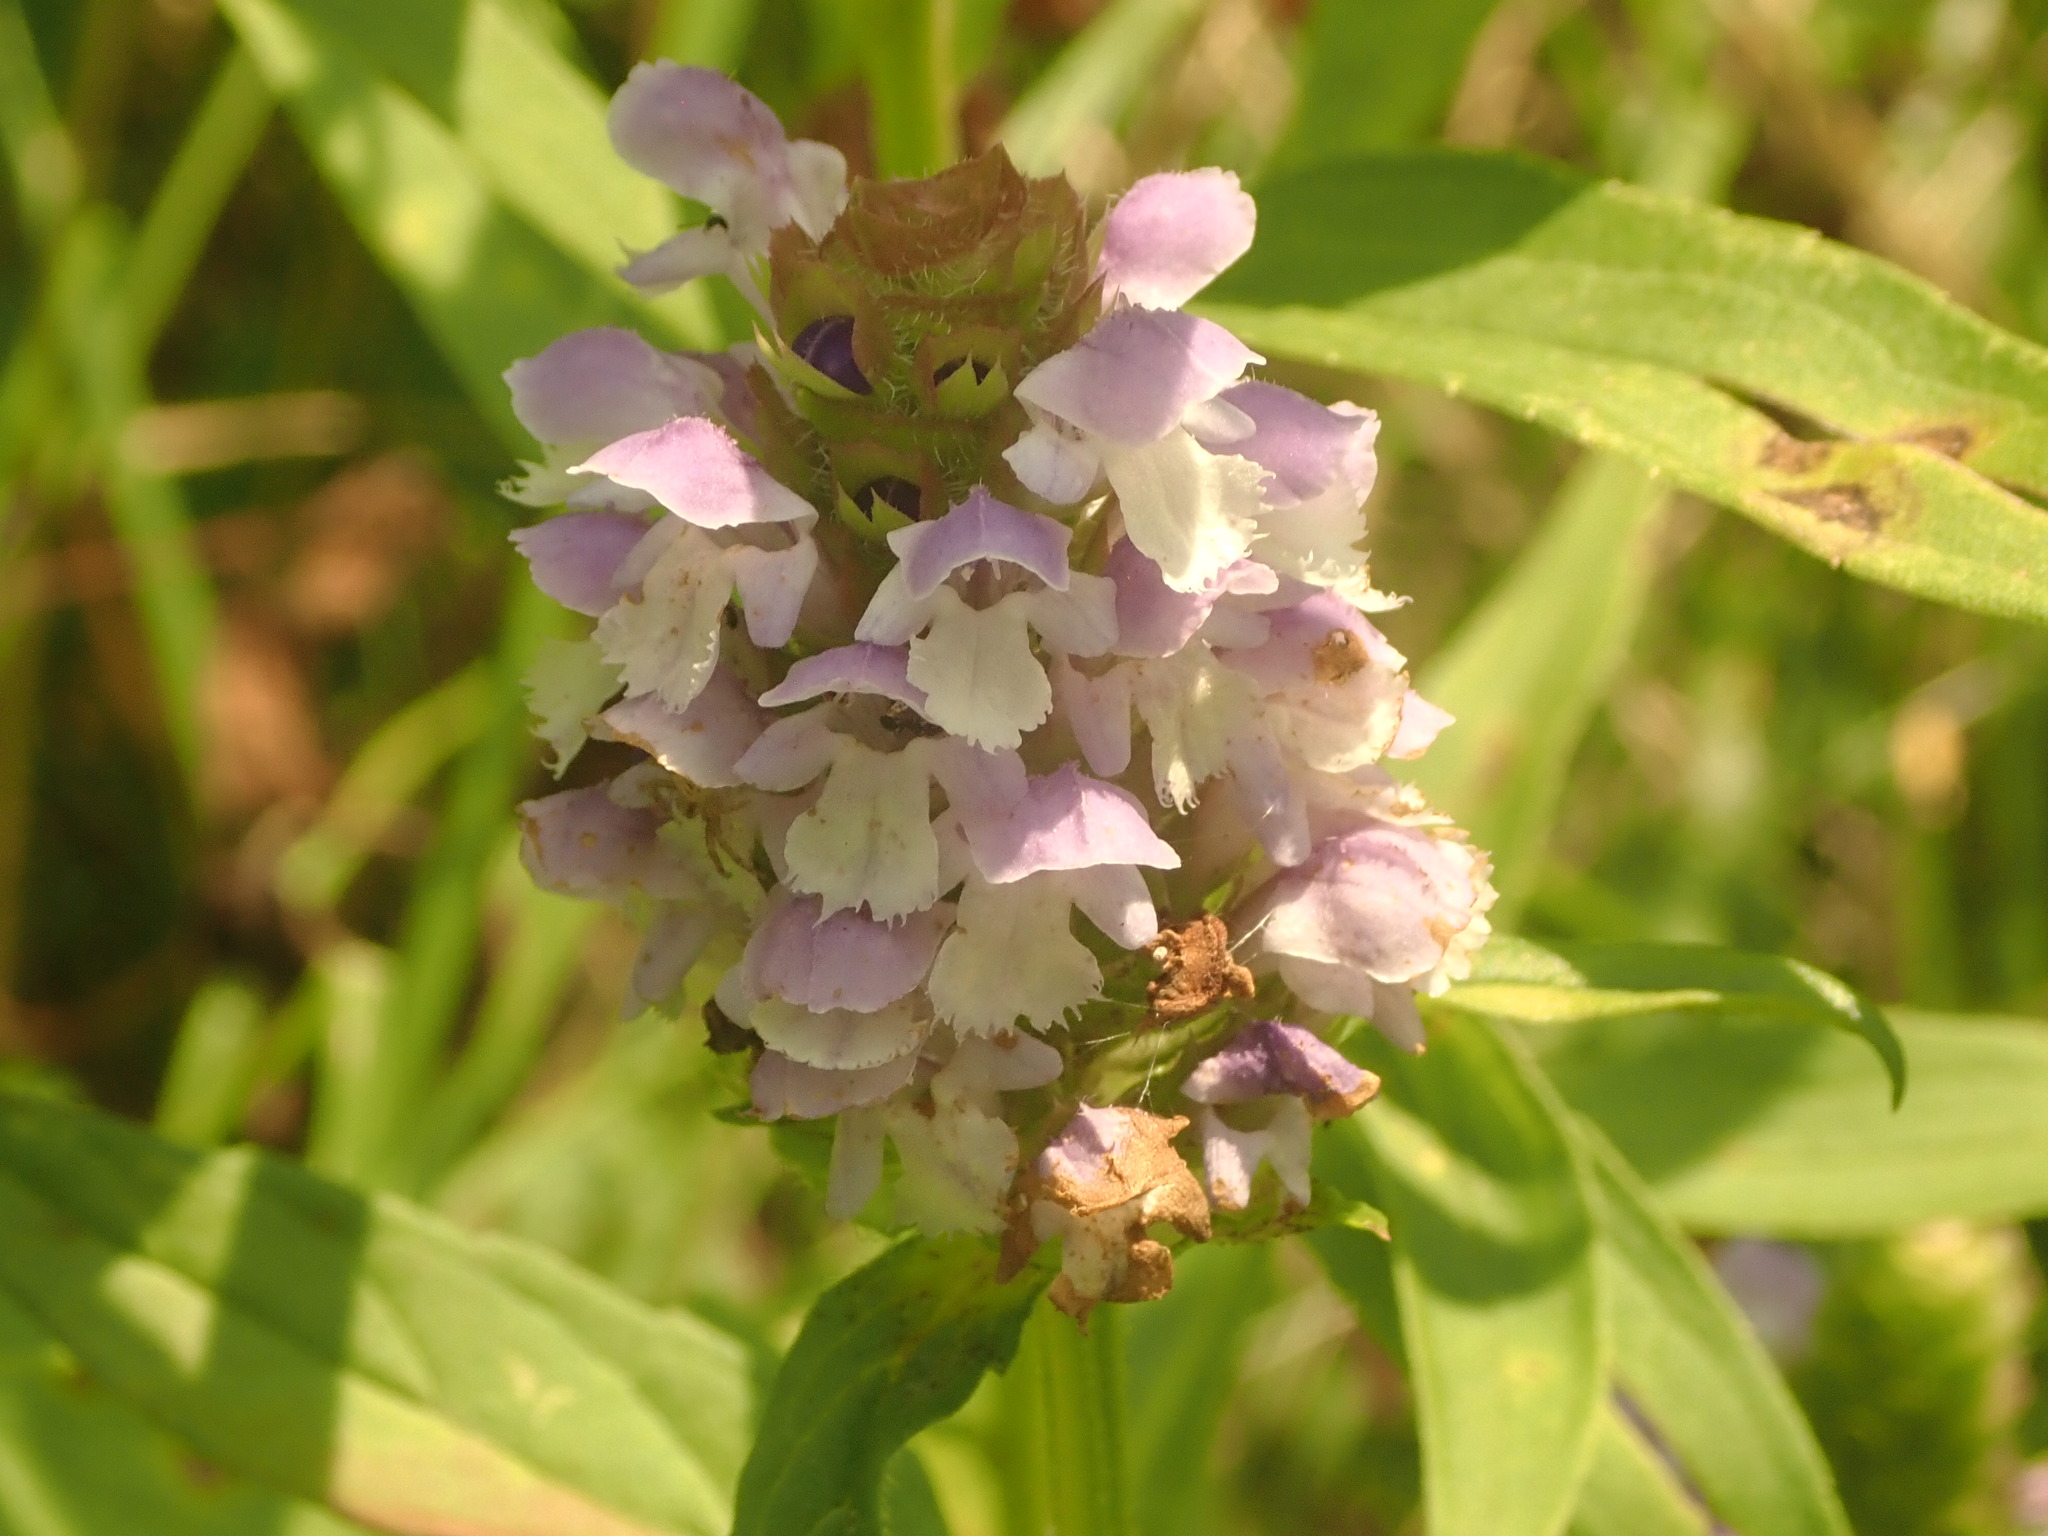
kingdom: Plantae
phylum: Tracheophyta
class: Magnoliopsida
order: Lamiales
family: Lamiaceae
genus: Prunella
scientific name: Prunella vulgaris
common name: Heal-all
